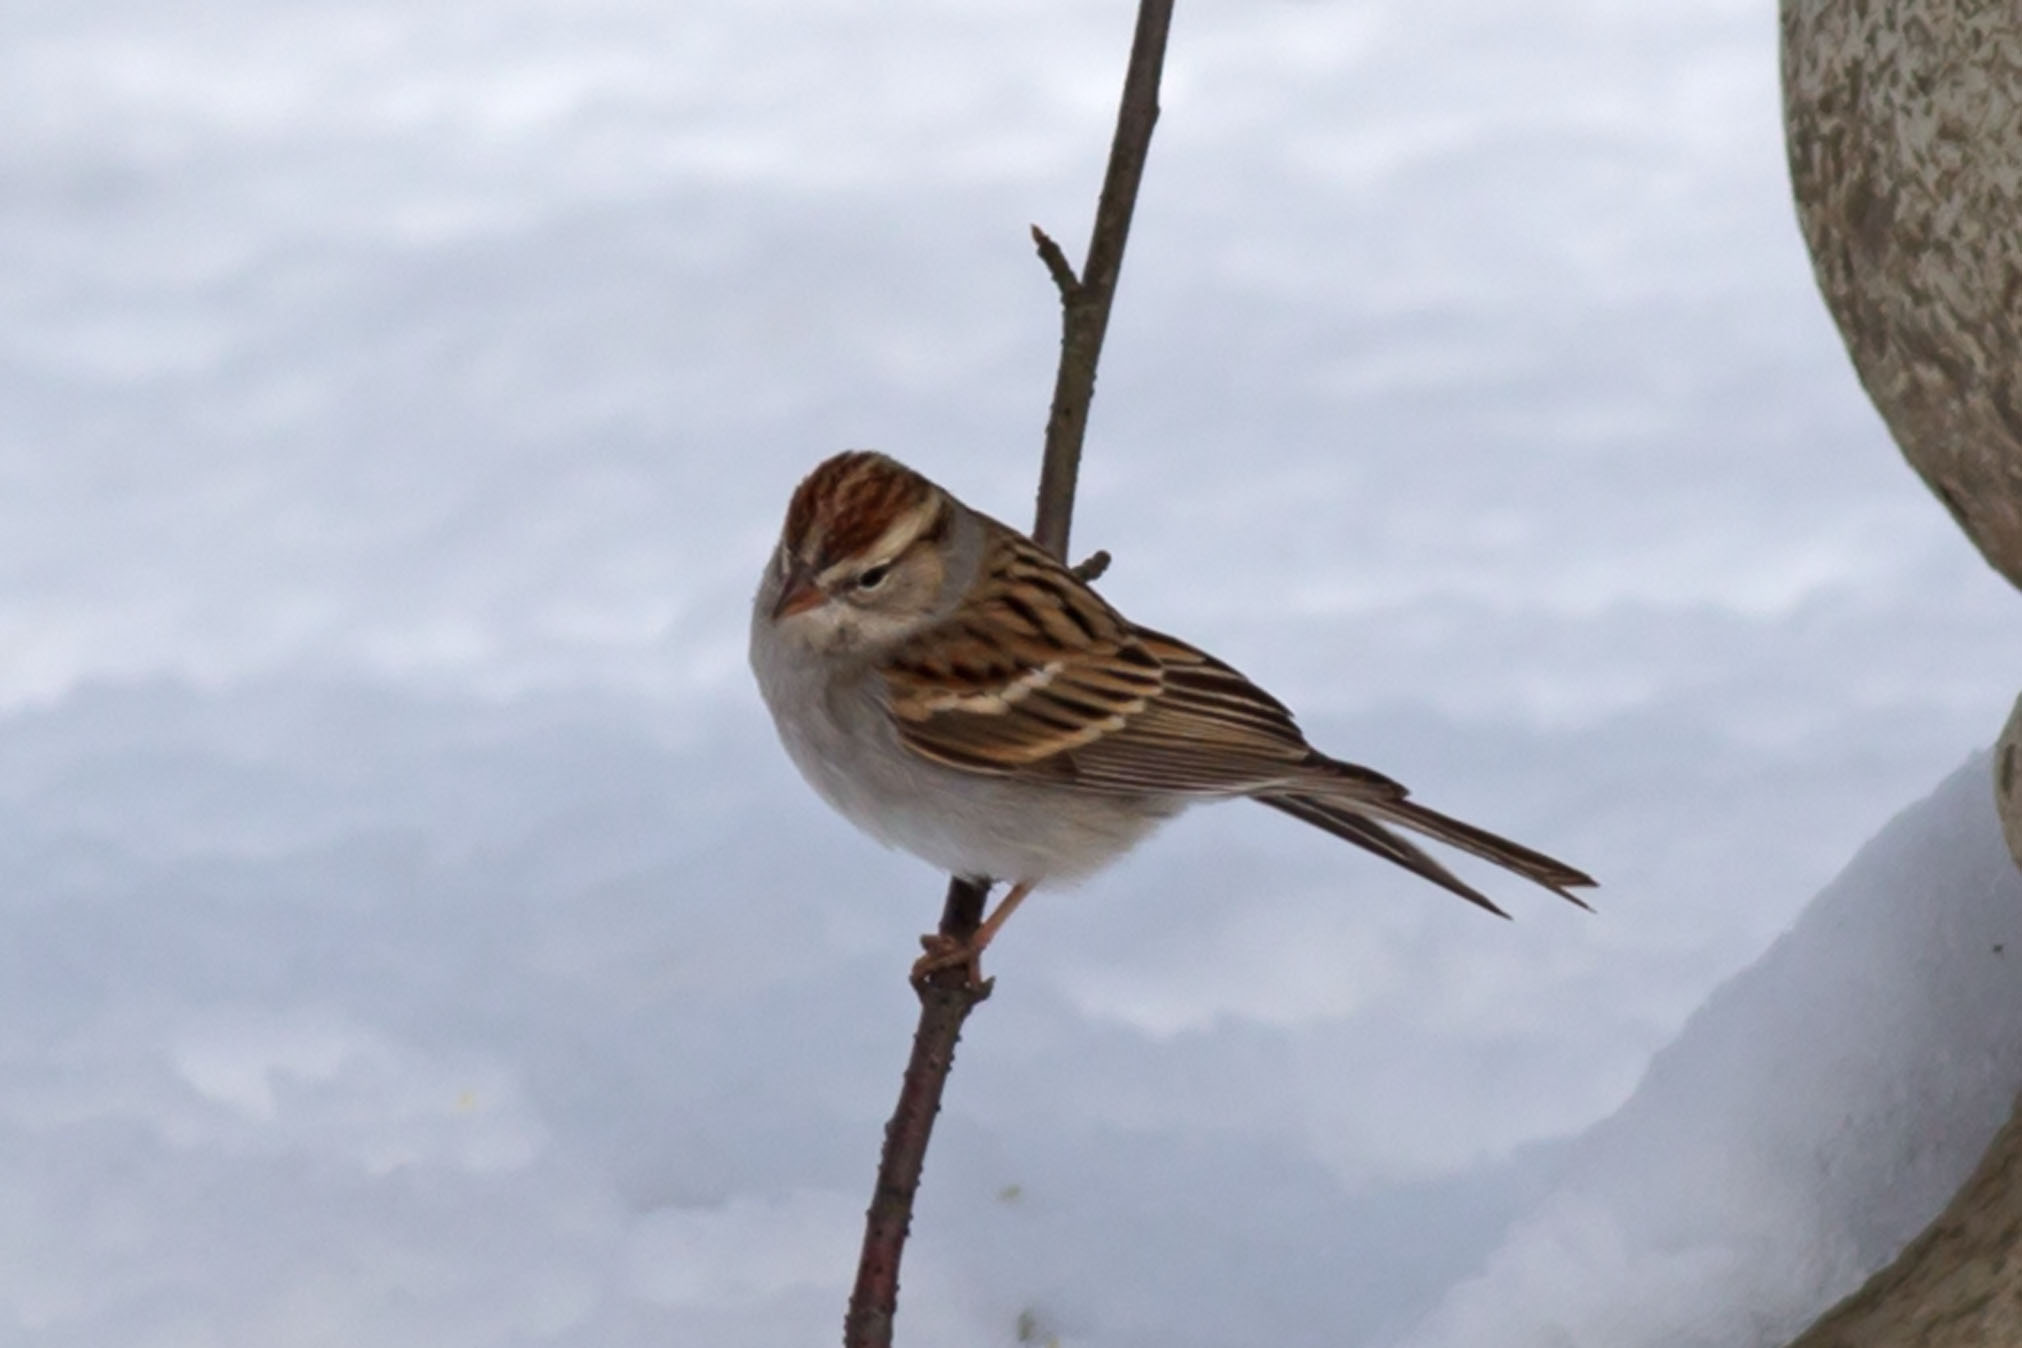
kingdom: Animalia
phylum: Chordata
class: Aves
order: Passeriformes
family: Passerellidae
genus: Spizella
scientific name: Spizella passerina
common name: Chipping sparrow
